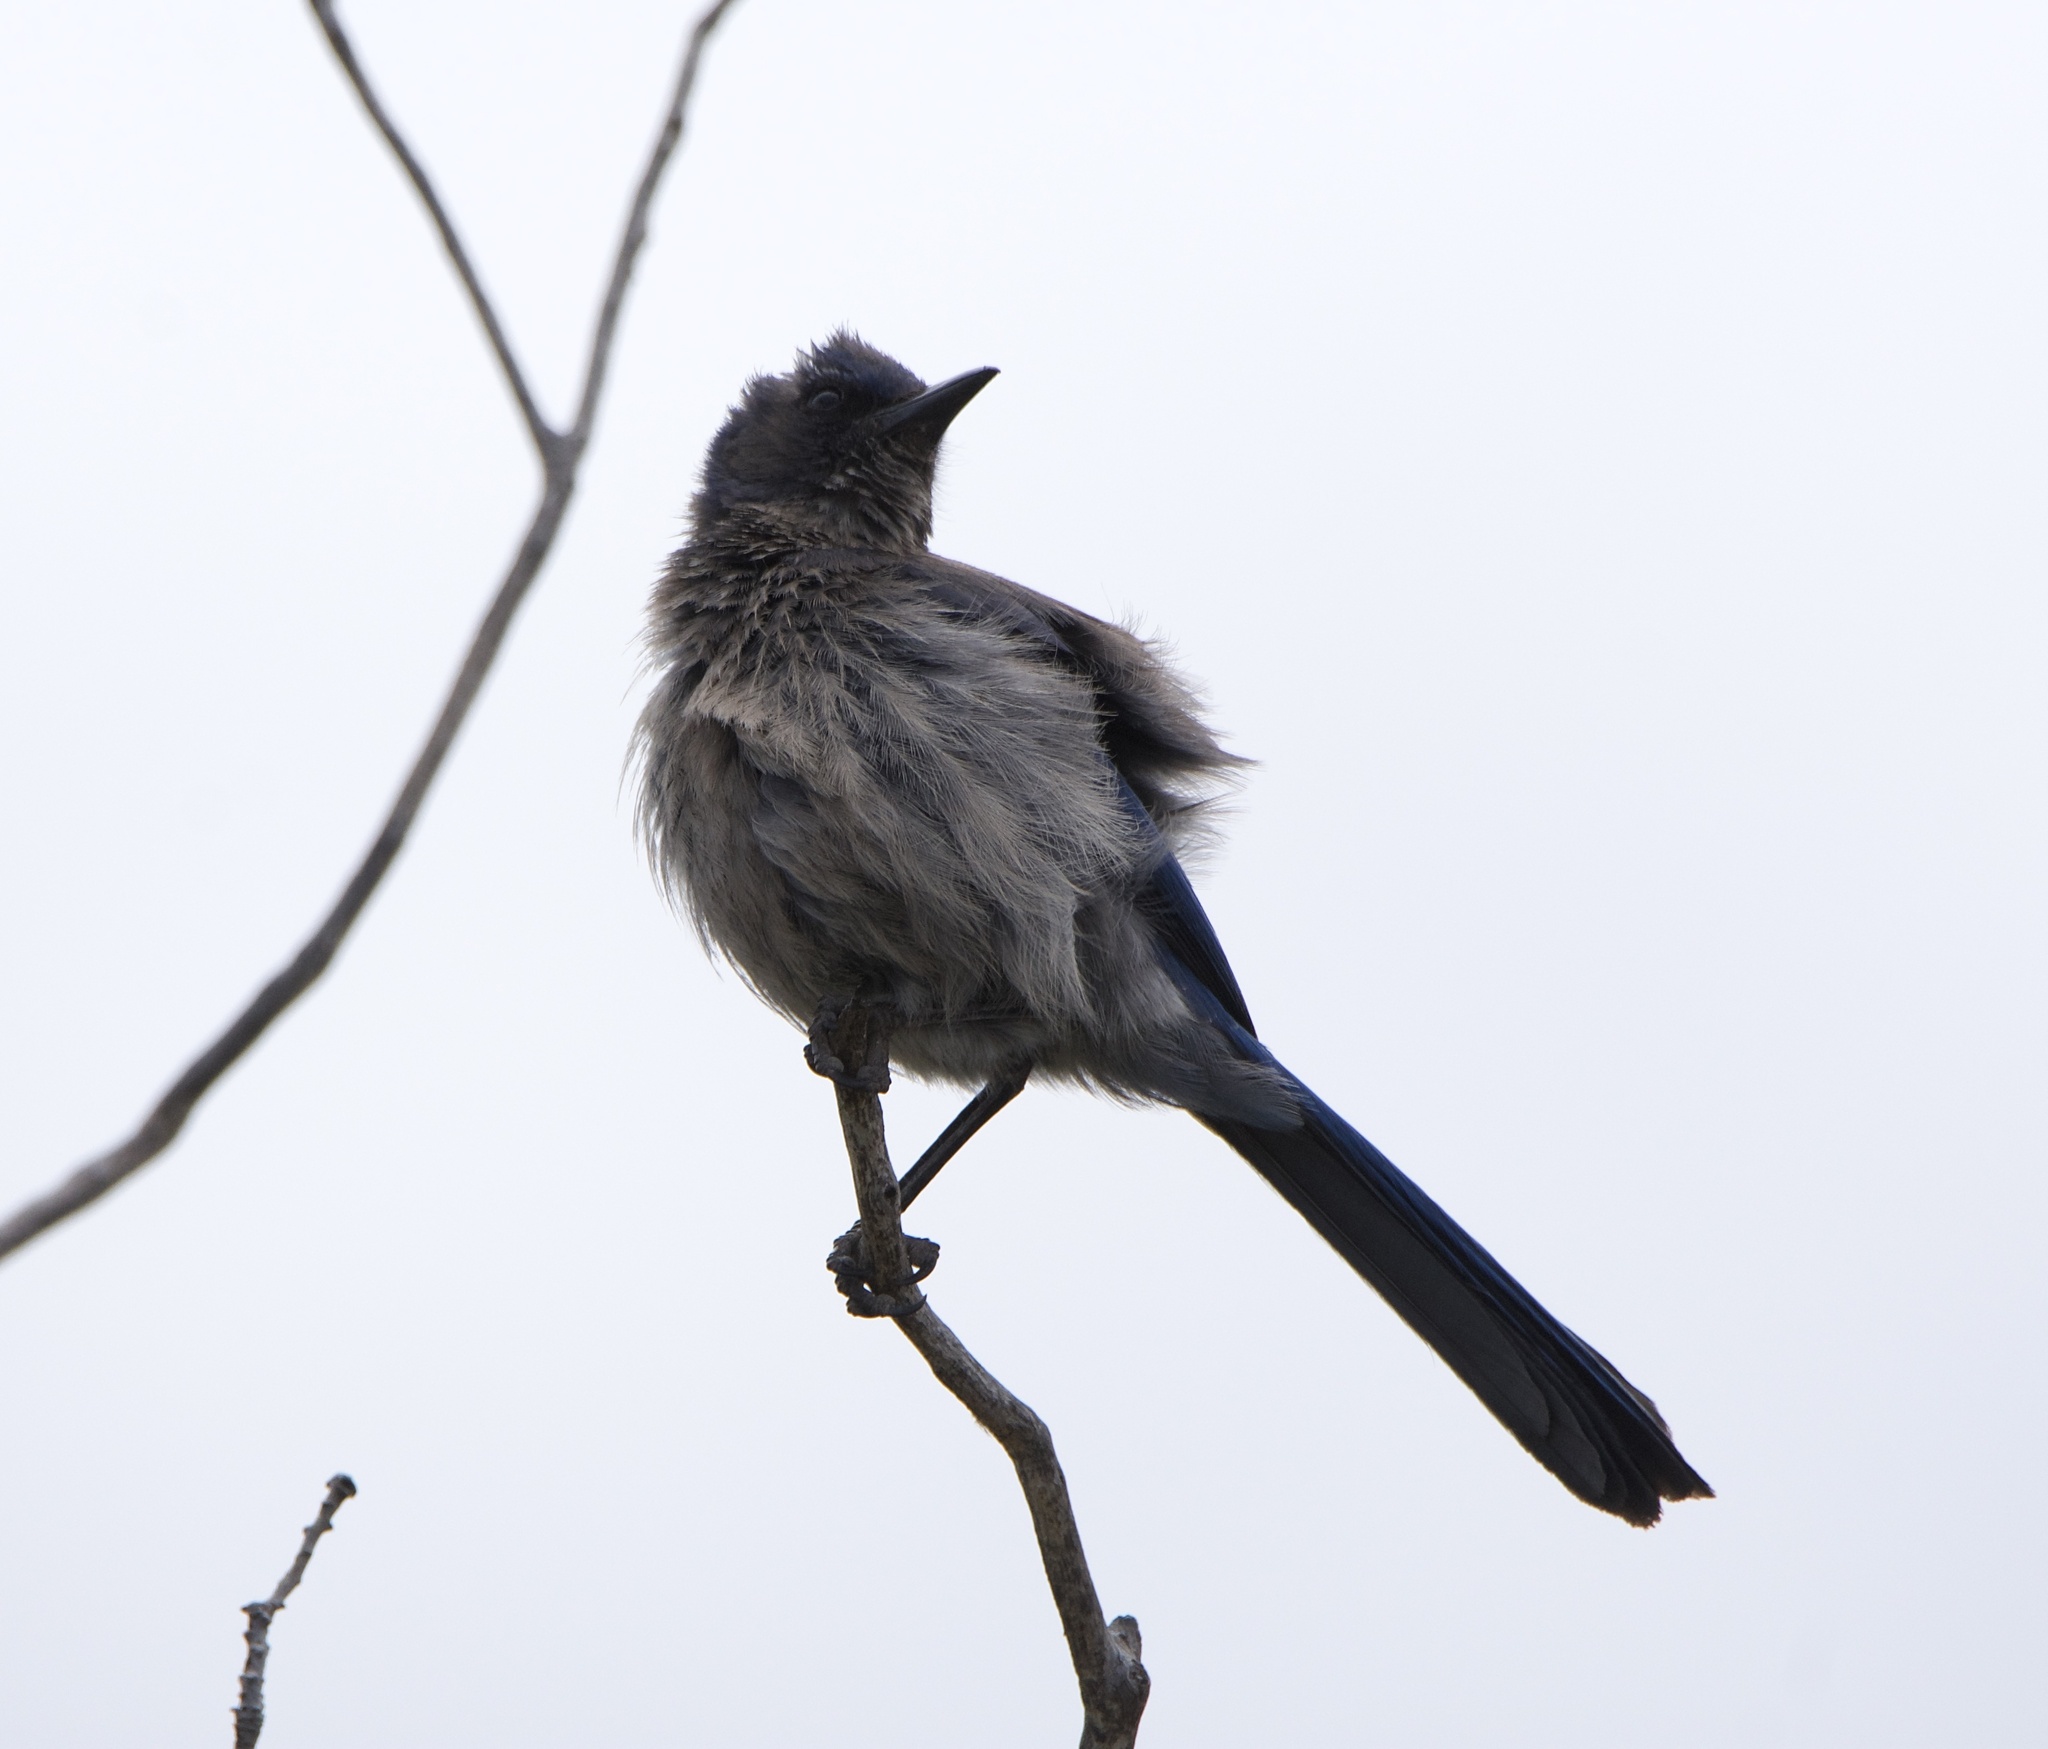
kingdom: Animalia
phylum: Chordata
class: Aves
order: Passeriformes
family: Corvidae
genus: Aphelocoma
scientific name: Aphelocoma woodhouseii
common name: Woodhouse's scrub-jay
